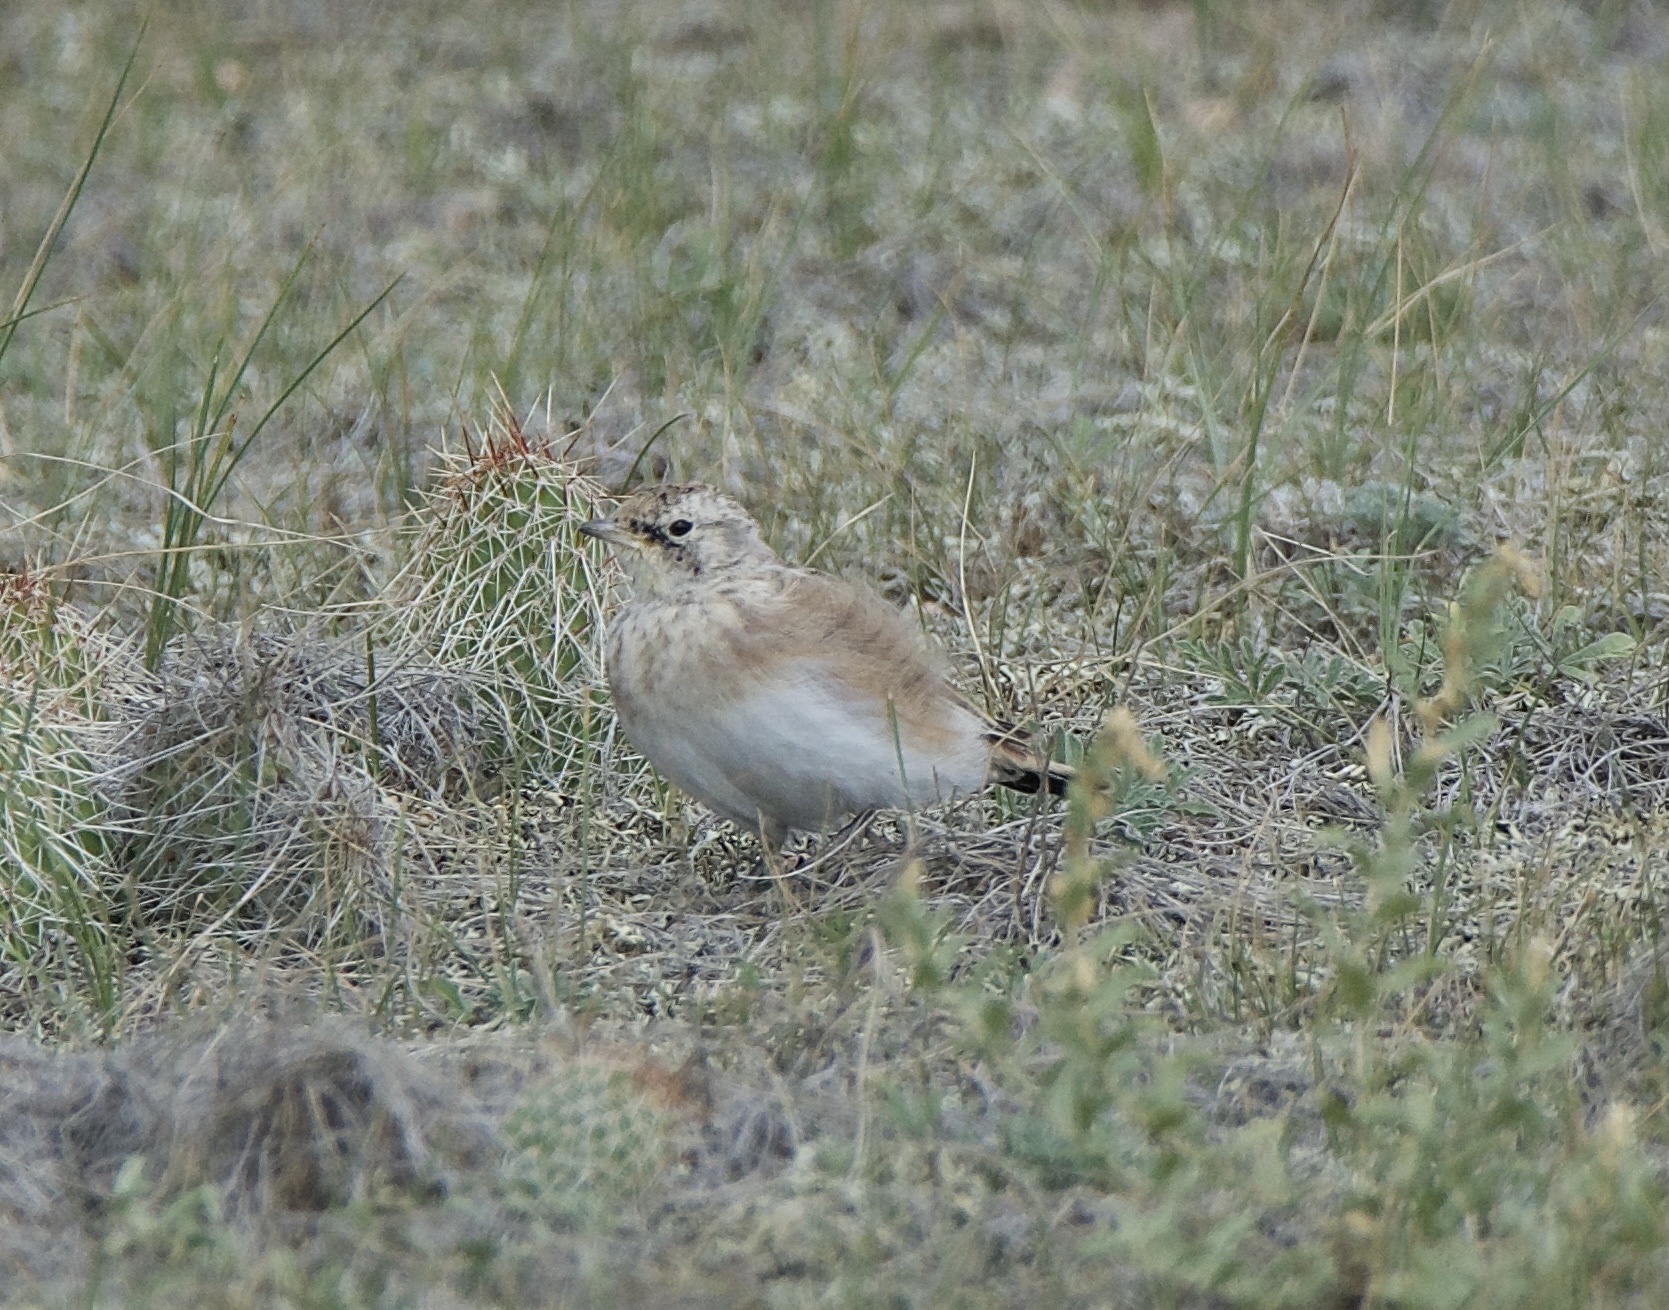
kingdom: Animalia
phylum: Chordata
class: Aves
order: Passeriformes
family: Alaudidae
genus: Eremophila
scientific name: Eremophila alpestris
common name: Horned lark
